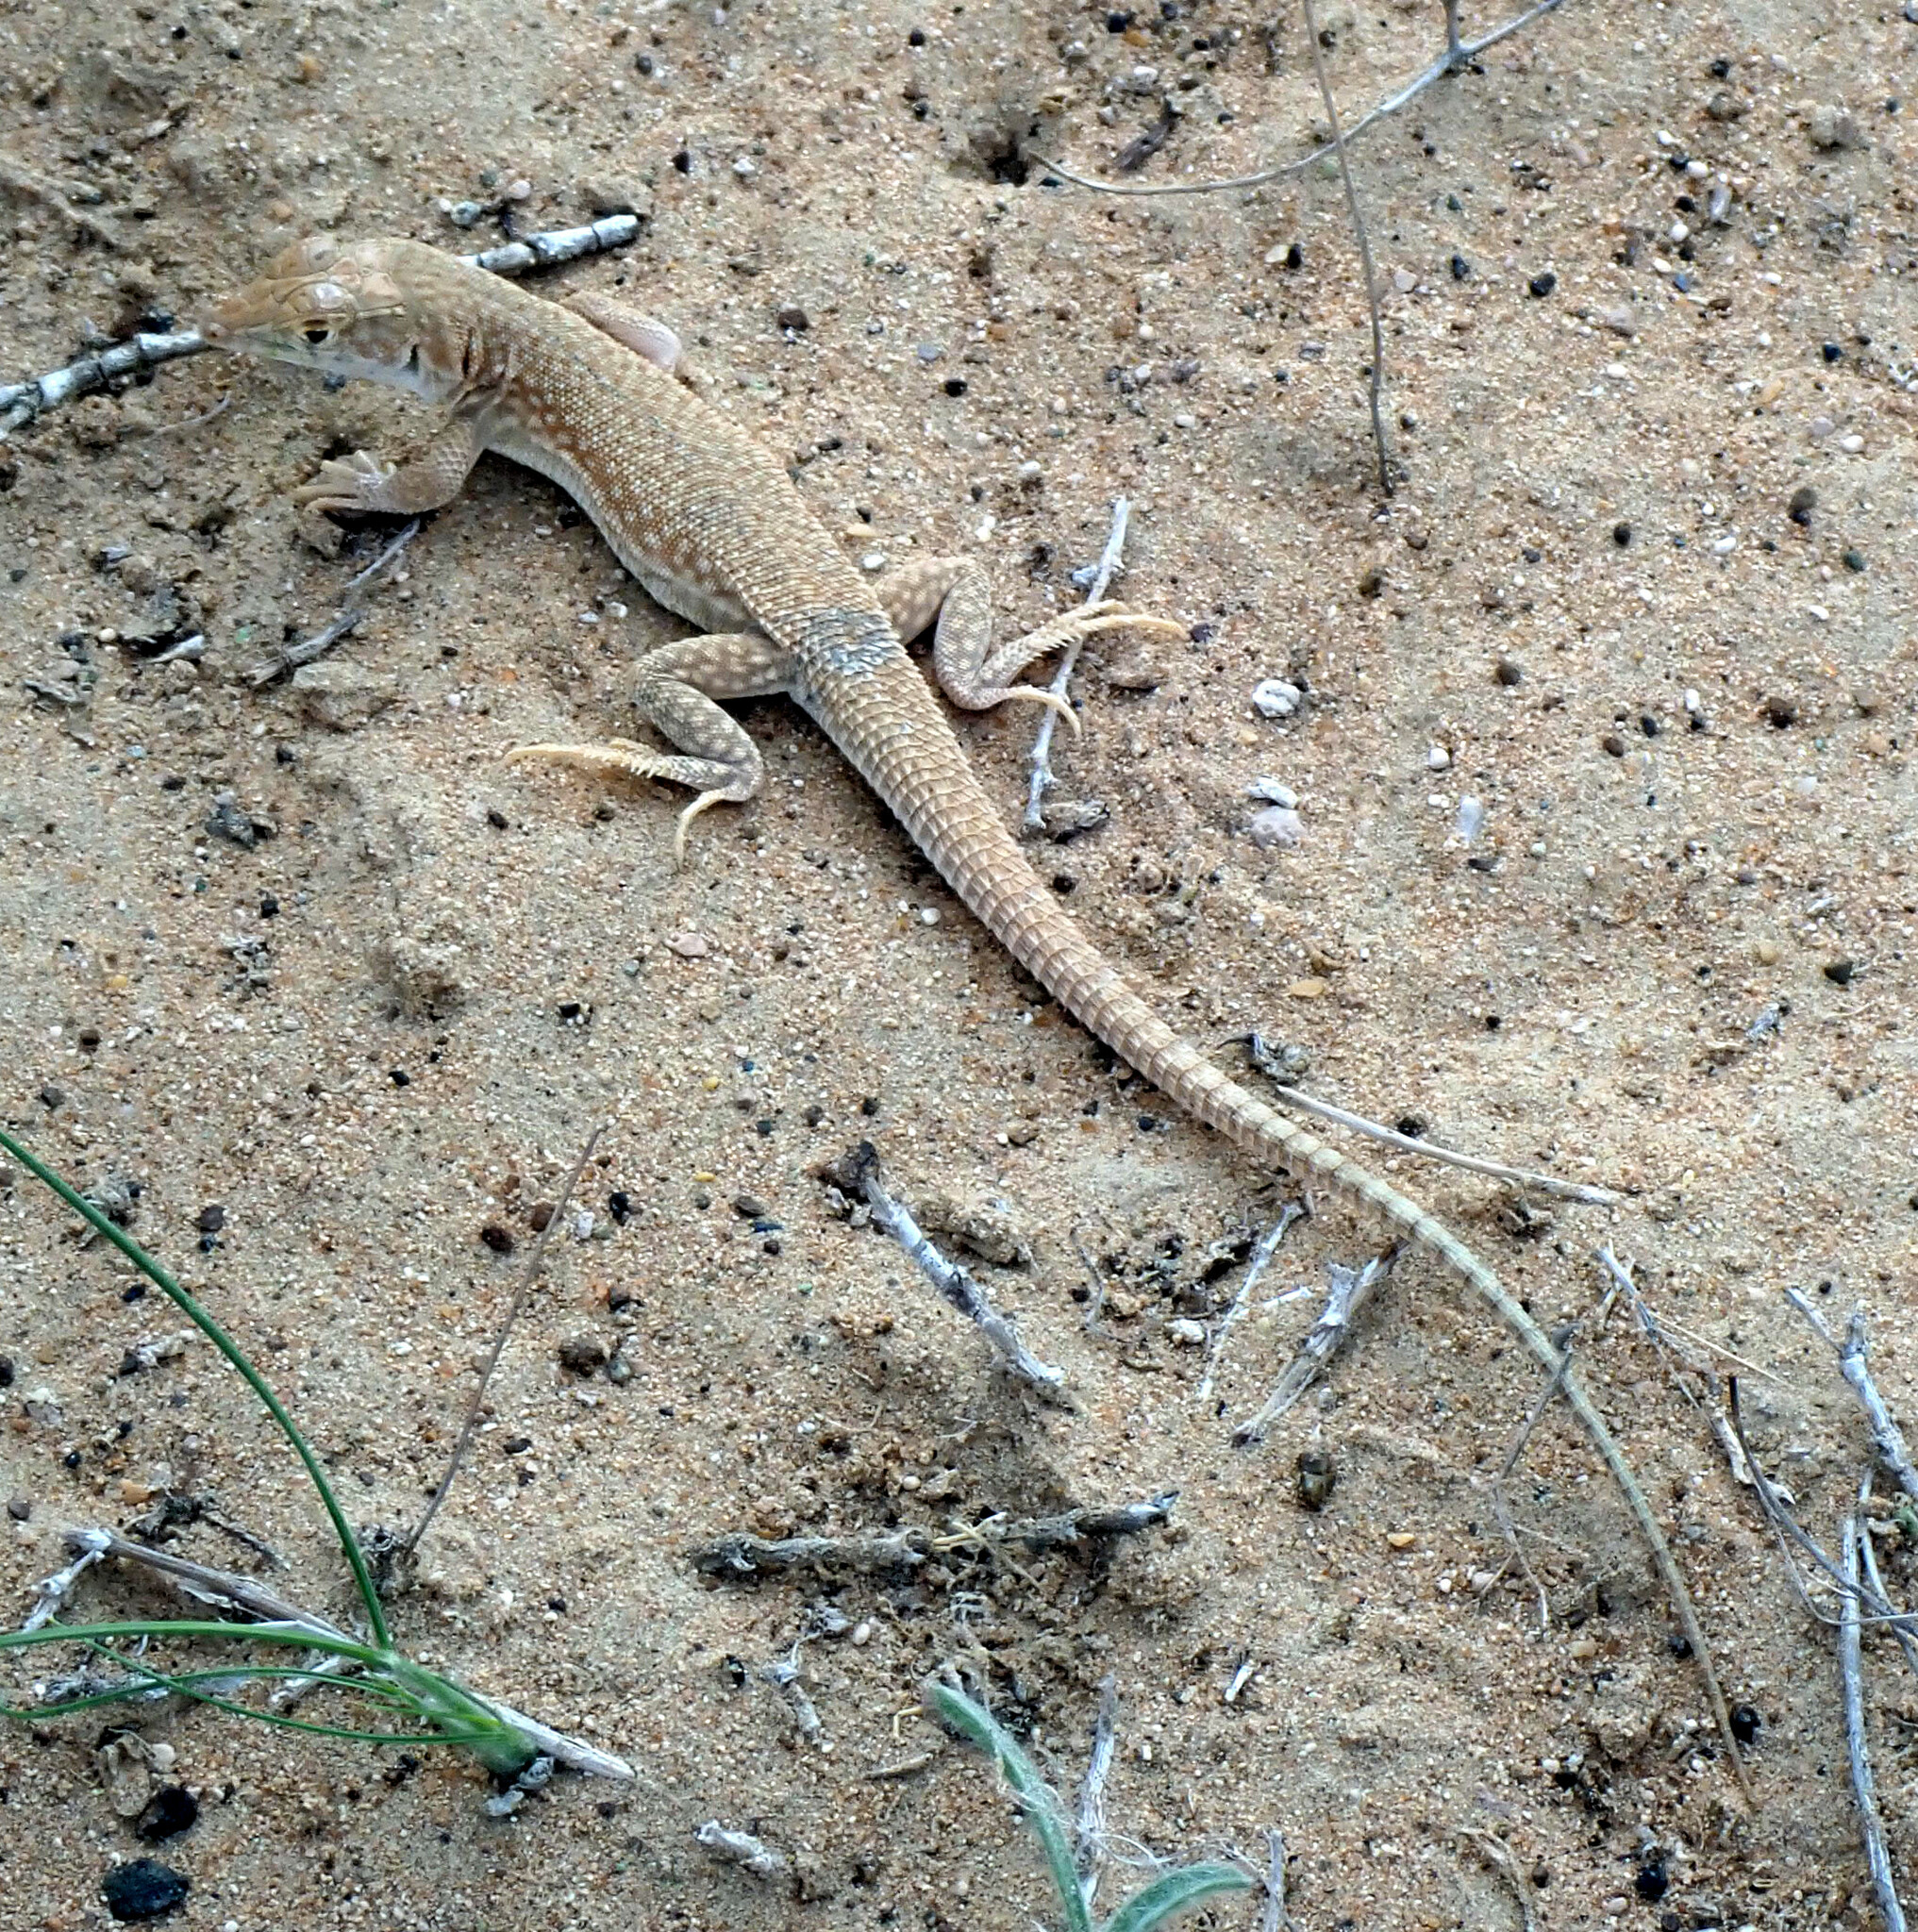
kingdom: Animalia
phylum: Chordata
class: Squamata
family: Lacertidae
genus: Acanthodactylus
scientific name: Acanthodactylus schmidti
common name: Schmidt's fringe-toed lizard
